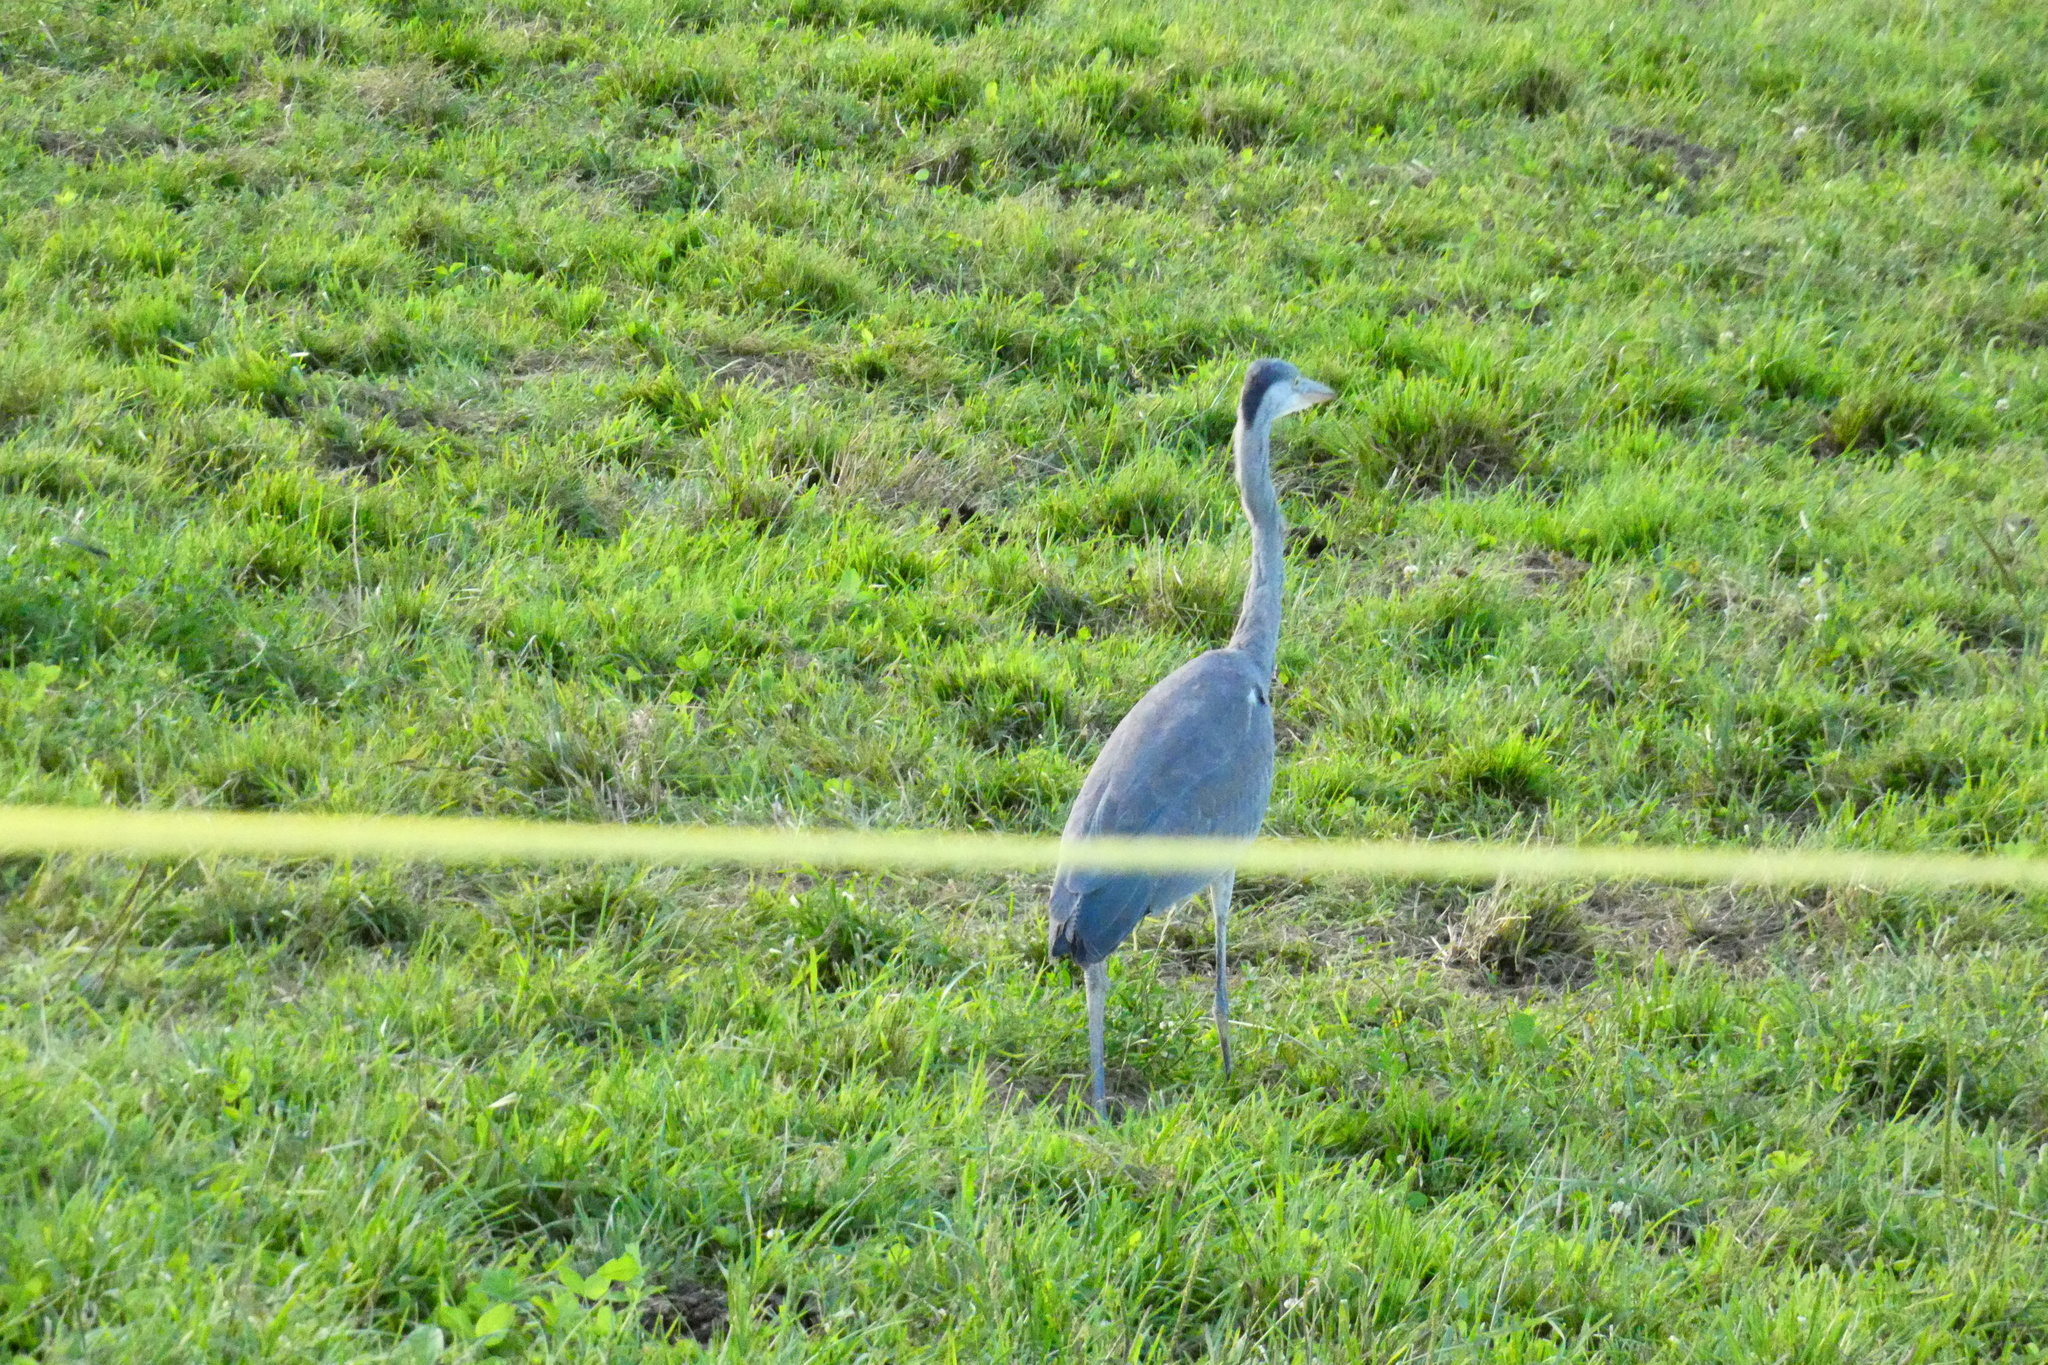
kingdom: Animalia
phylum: Chordata
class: Aves
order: Pelecaniformes
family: Ardeidae
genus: Ardea
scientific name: Ardea cinerea
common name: Grey heron
